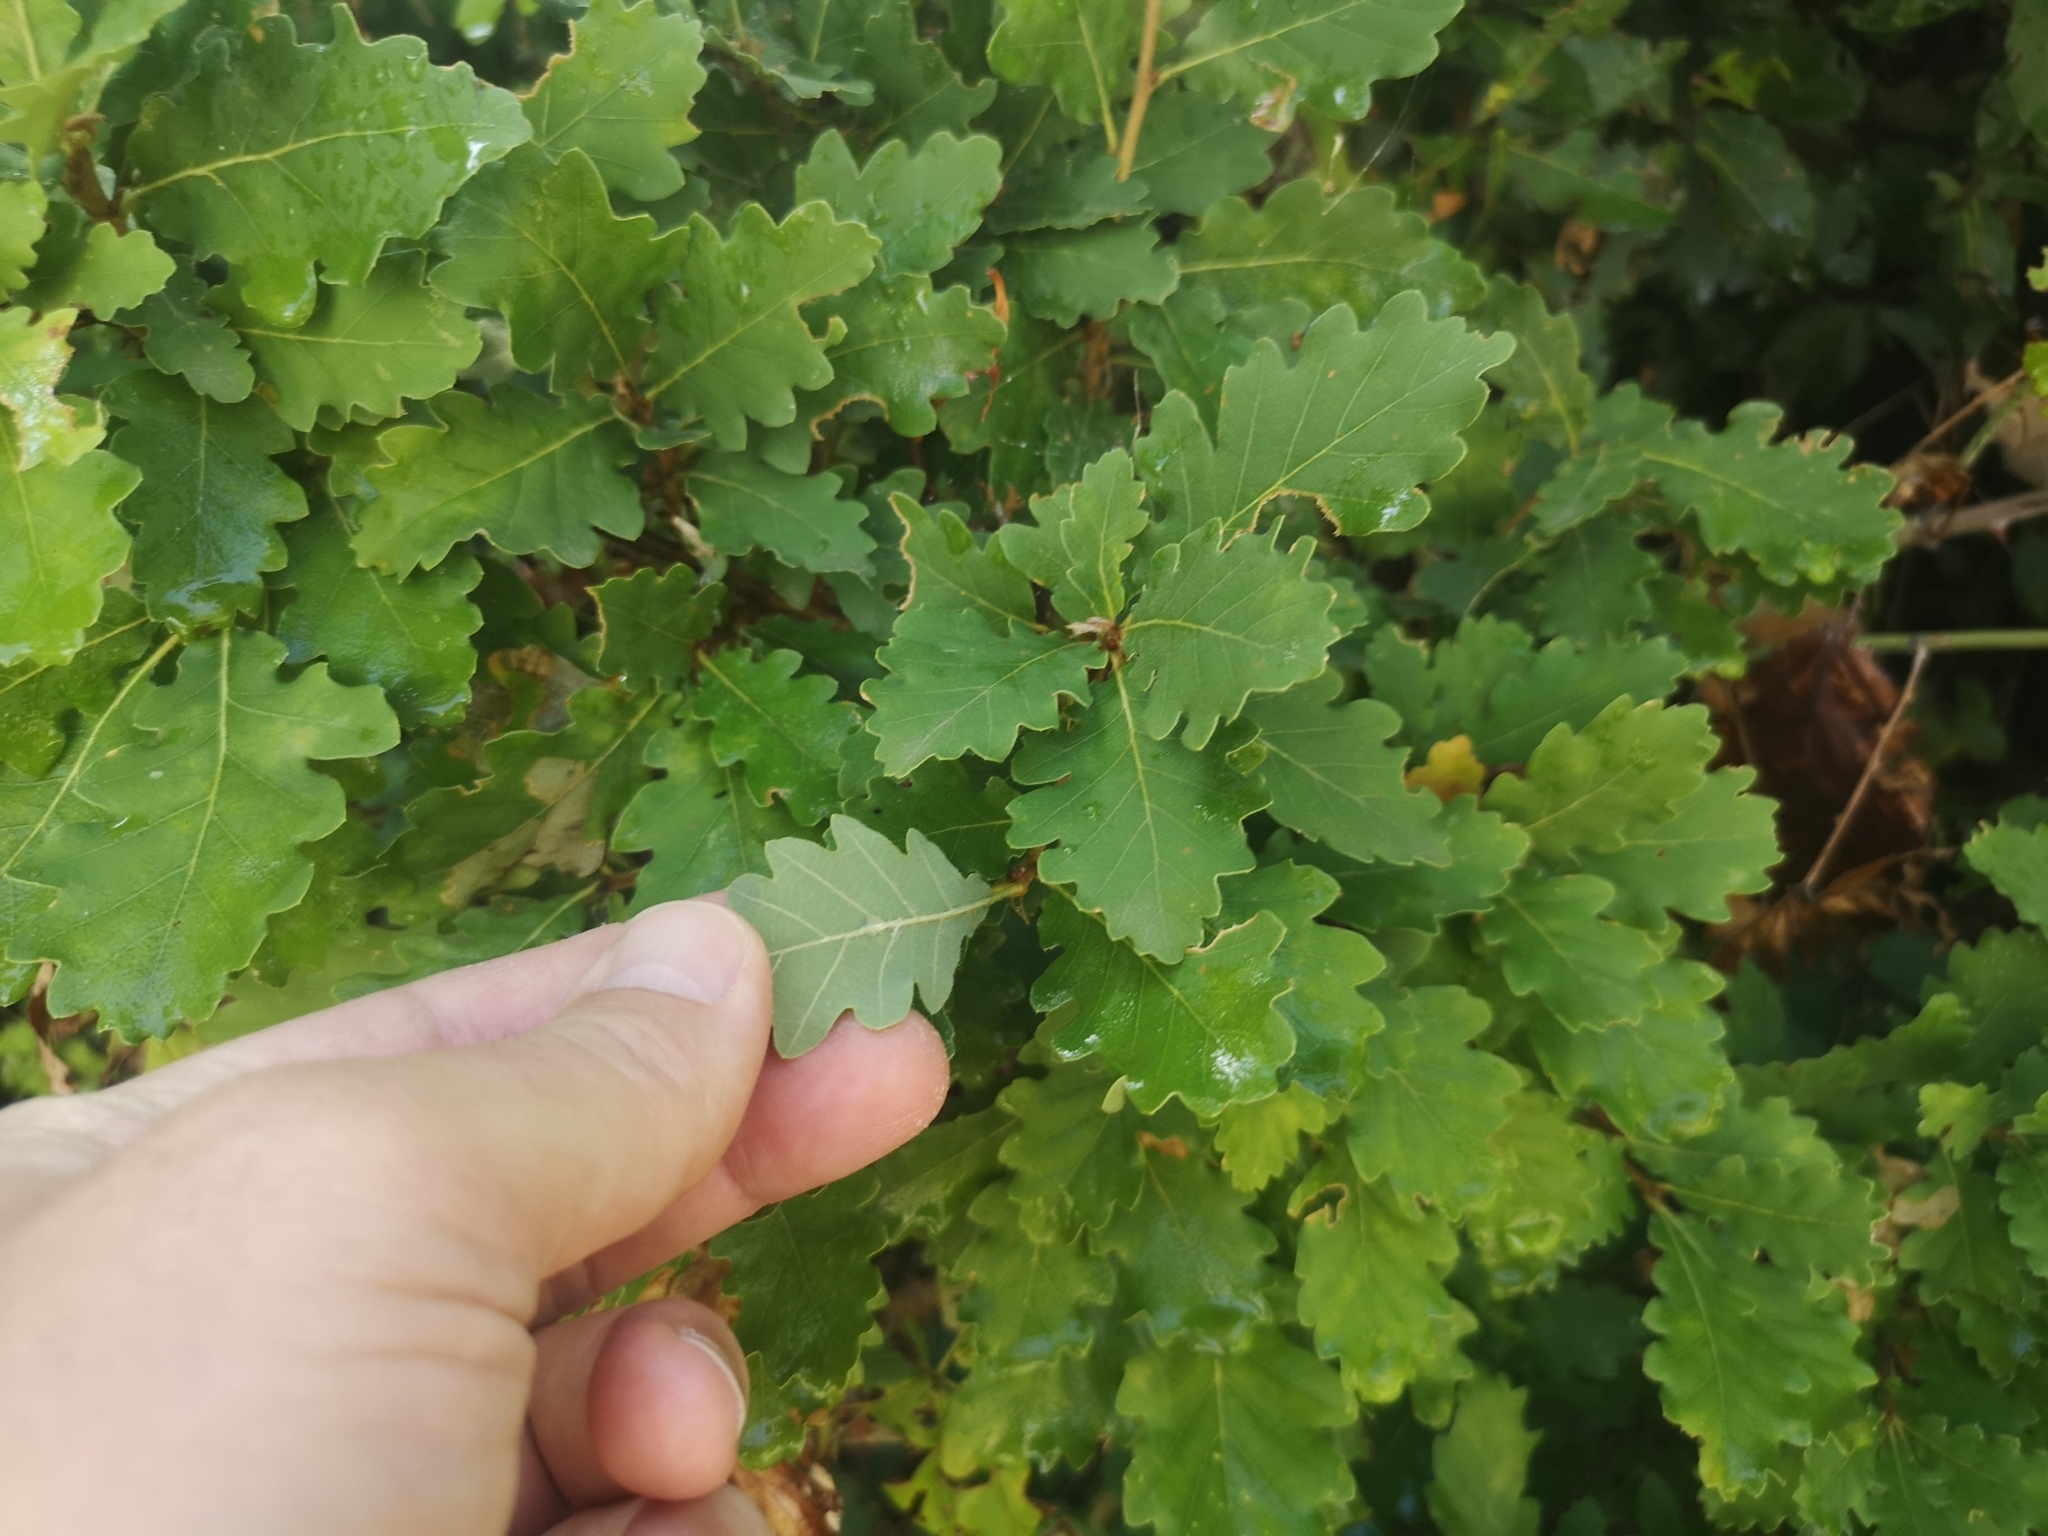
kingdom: Plantae
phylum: Tracheophyta
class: Magnoliopsida
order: Fagales
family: Fagaceae
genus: Quercus
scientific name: Quercus pubescens
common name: Downy oak
